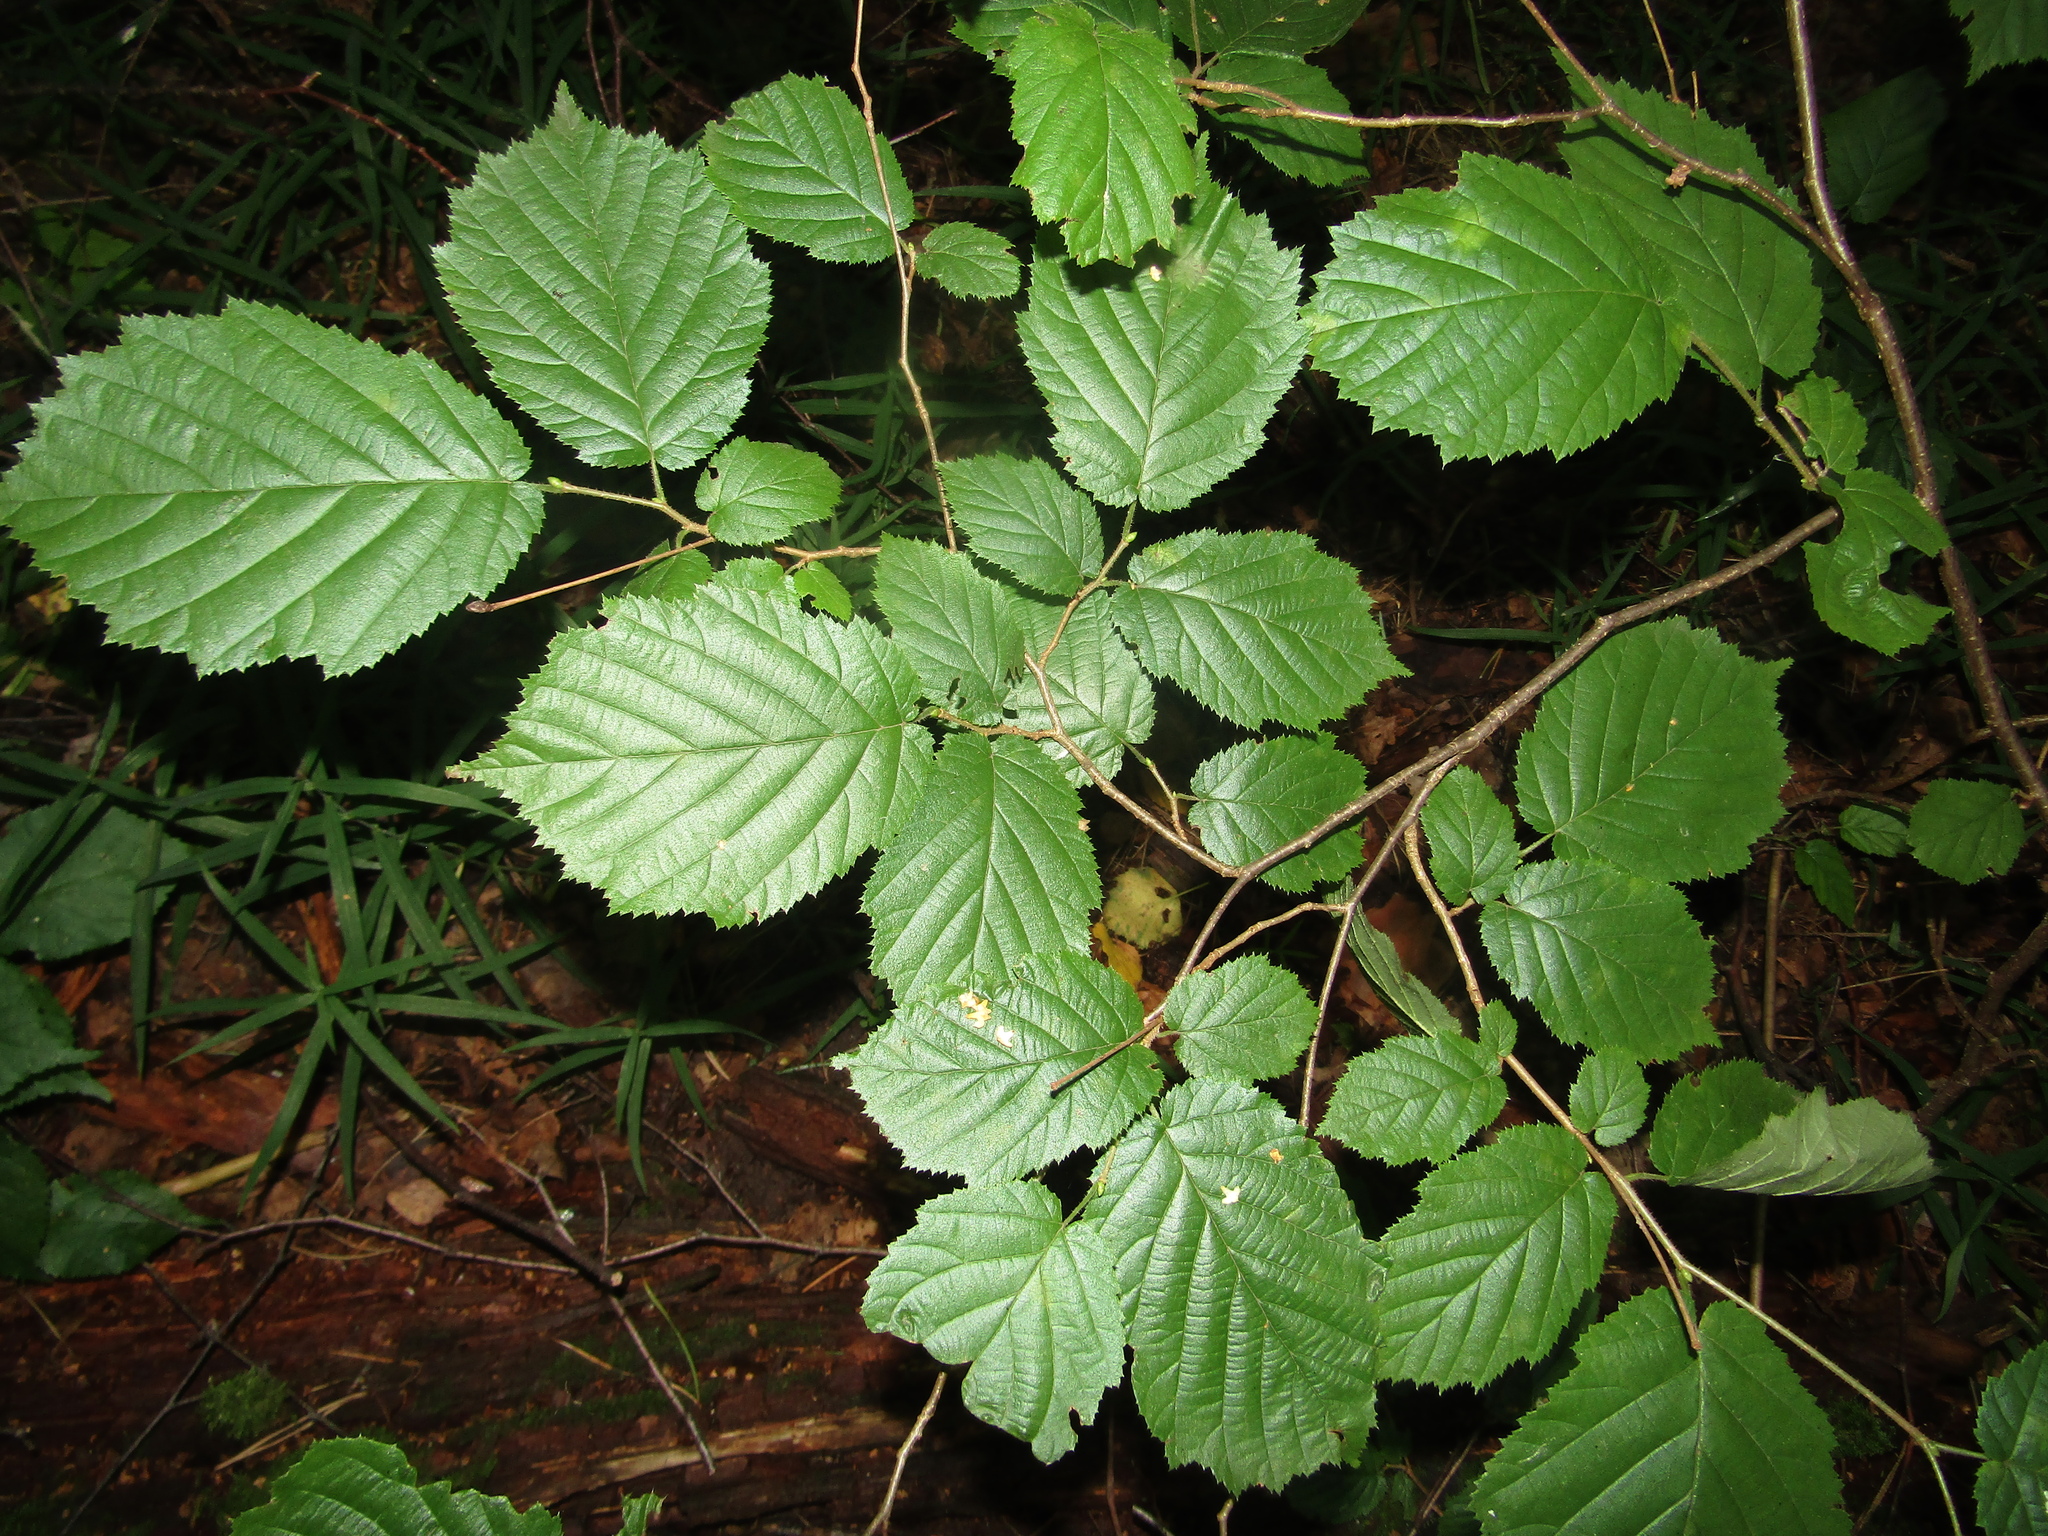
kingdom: Plantae
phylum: Tracheophyta
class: Magnoliopsida
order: Fagales
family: Betulaceae
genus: Corylus
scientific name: Corylus avellana
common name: European hazel
